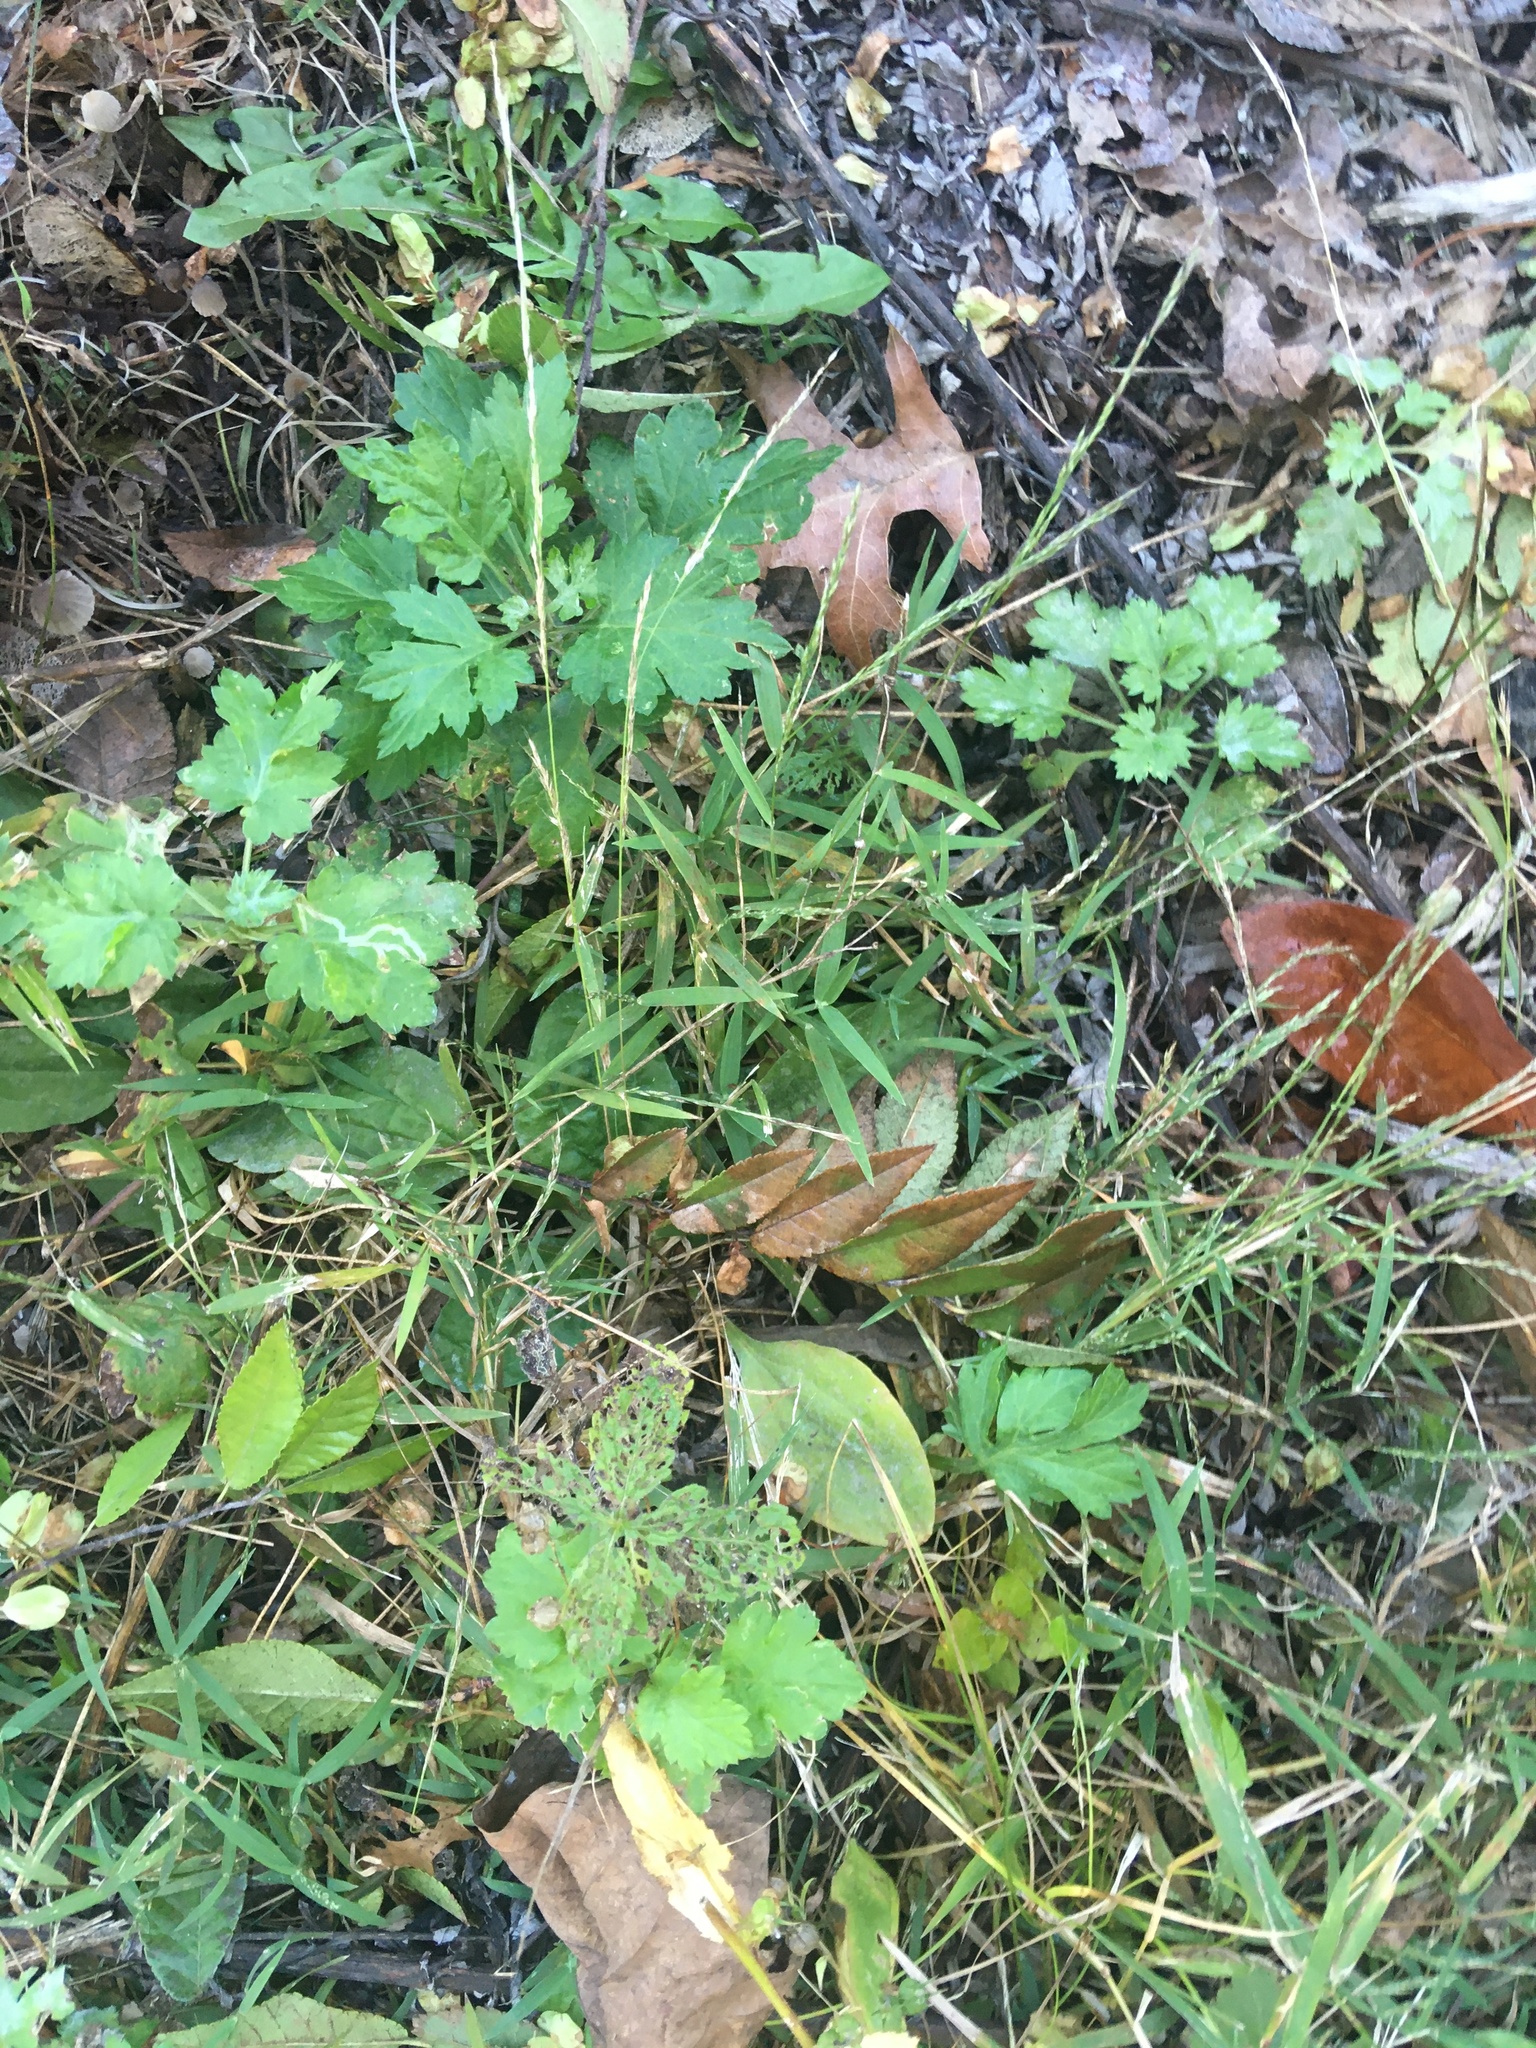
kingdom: Plantae
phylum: Tracheophyta
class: Magnoliopsida
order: Asterales
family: Asteraceae
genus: Artemisia
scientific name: Artemisia vulgaris
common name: Mugwort
